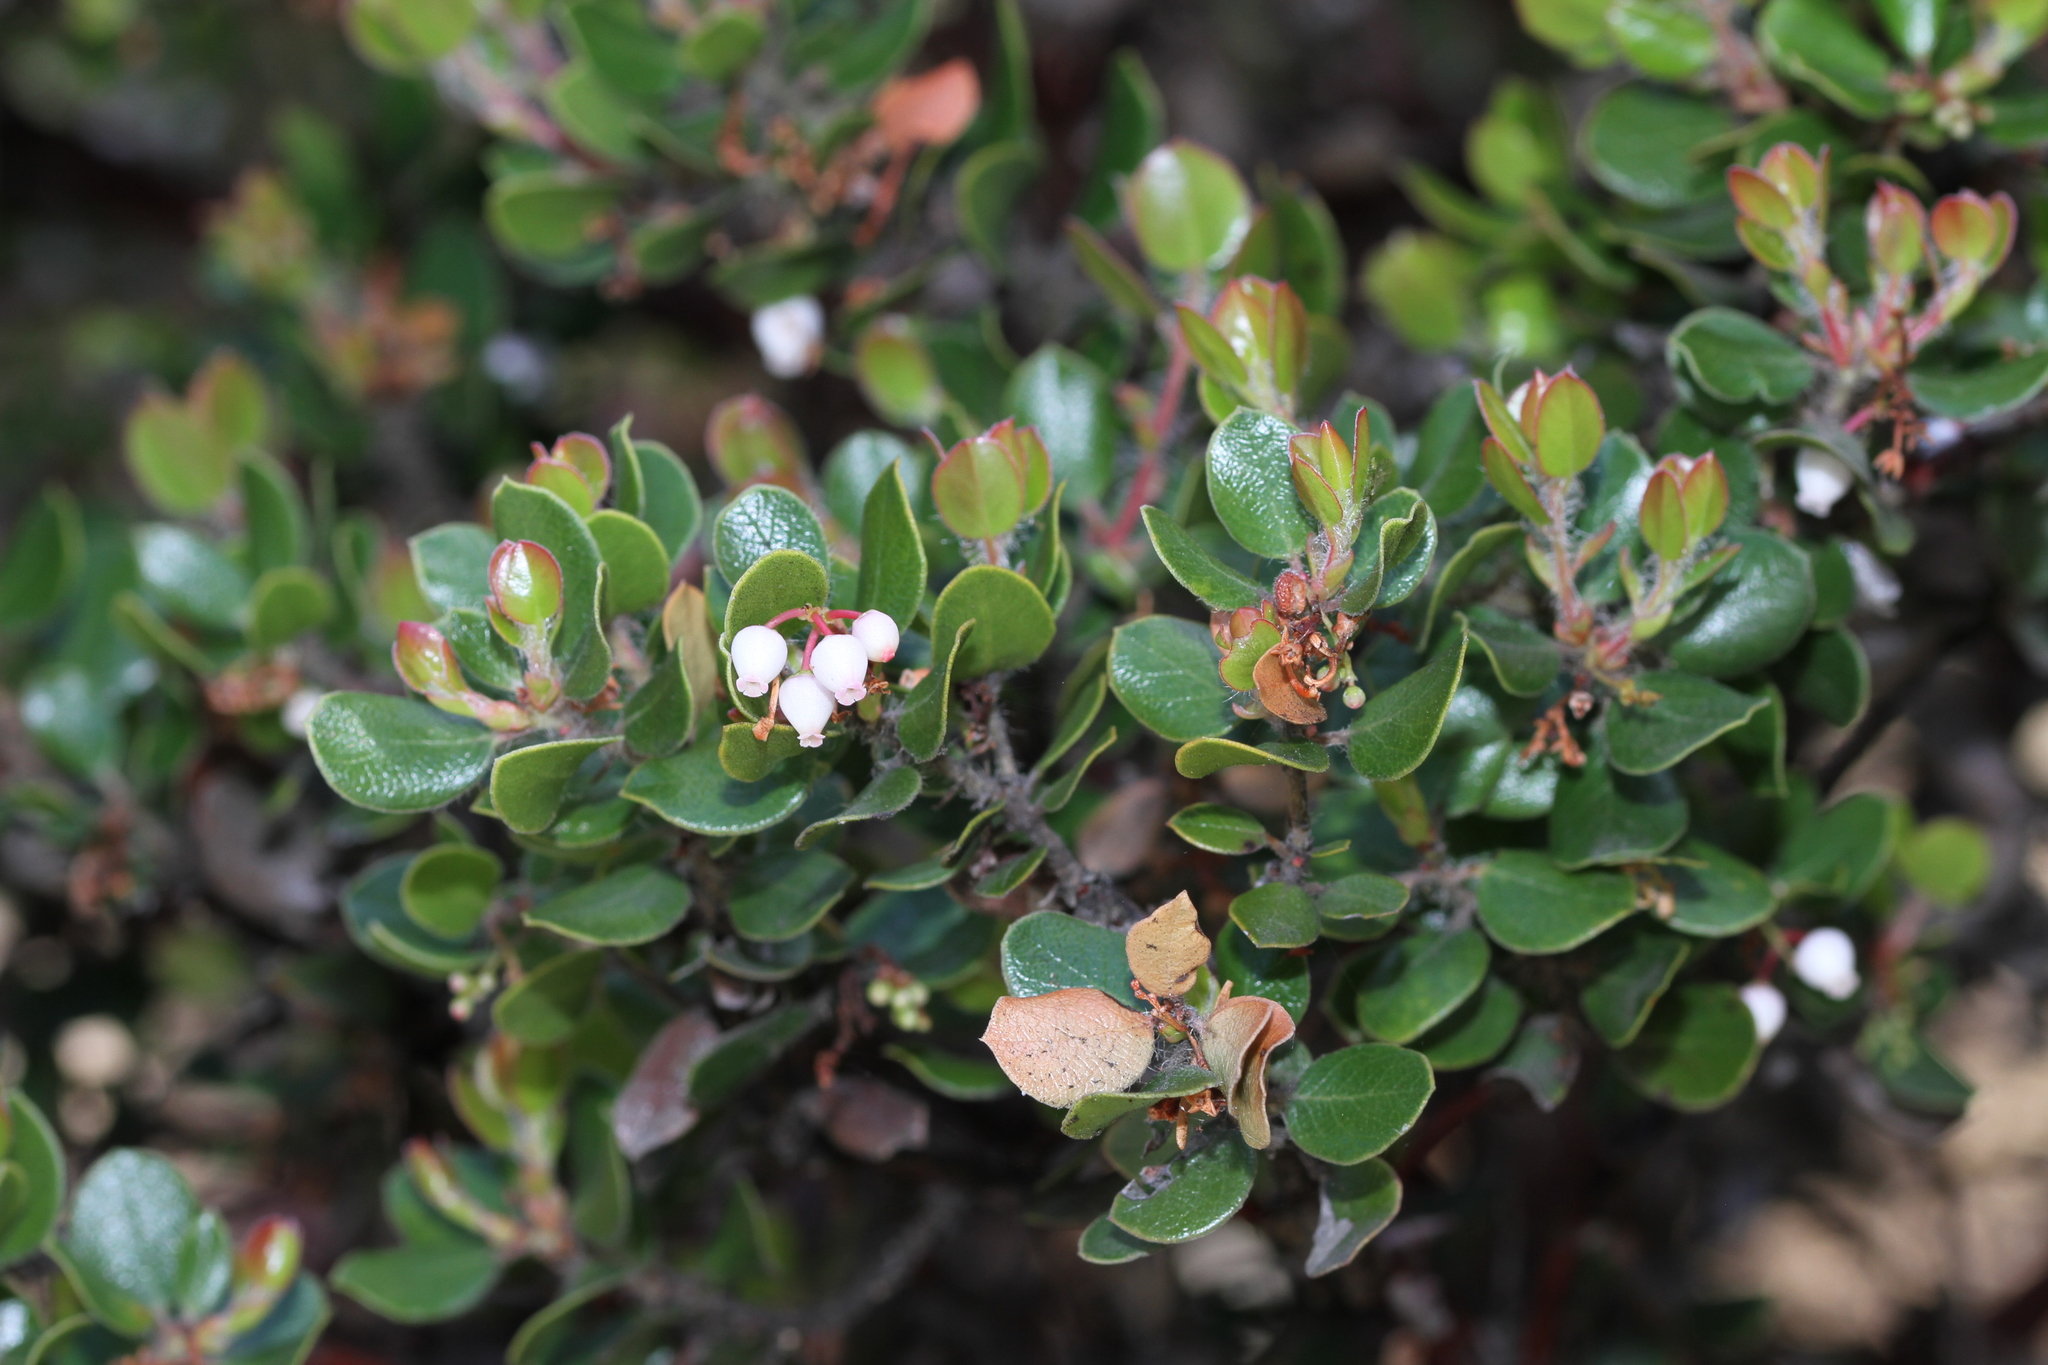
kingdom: Plantae
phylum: Tracheophyta
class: Magnoliopsida
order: Ericales
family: Ericaceae
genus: Arctostaphylos
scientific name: Arctostaphylos nummularia
